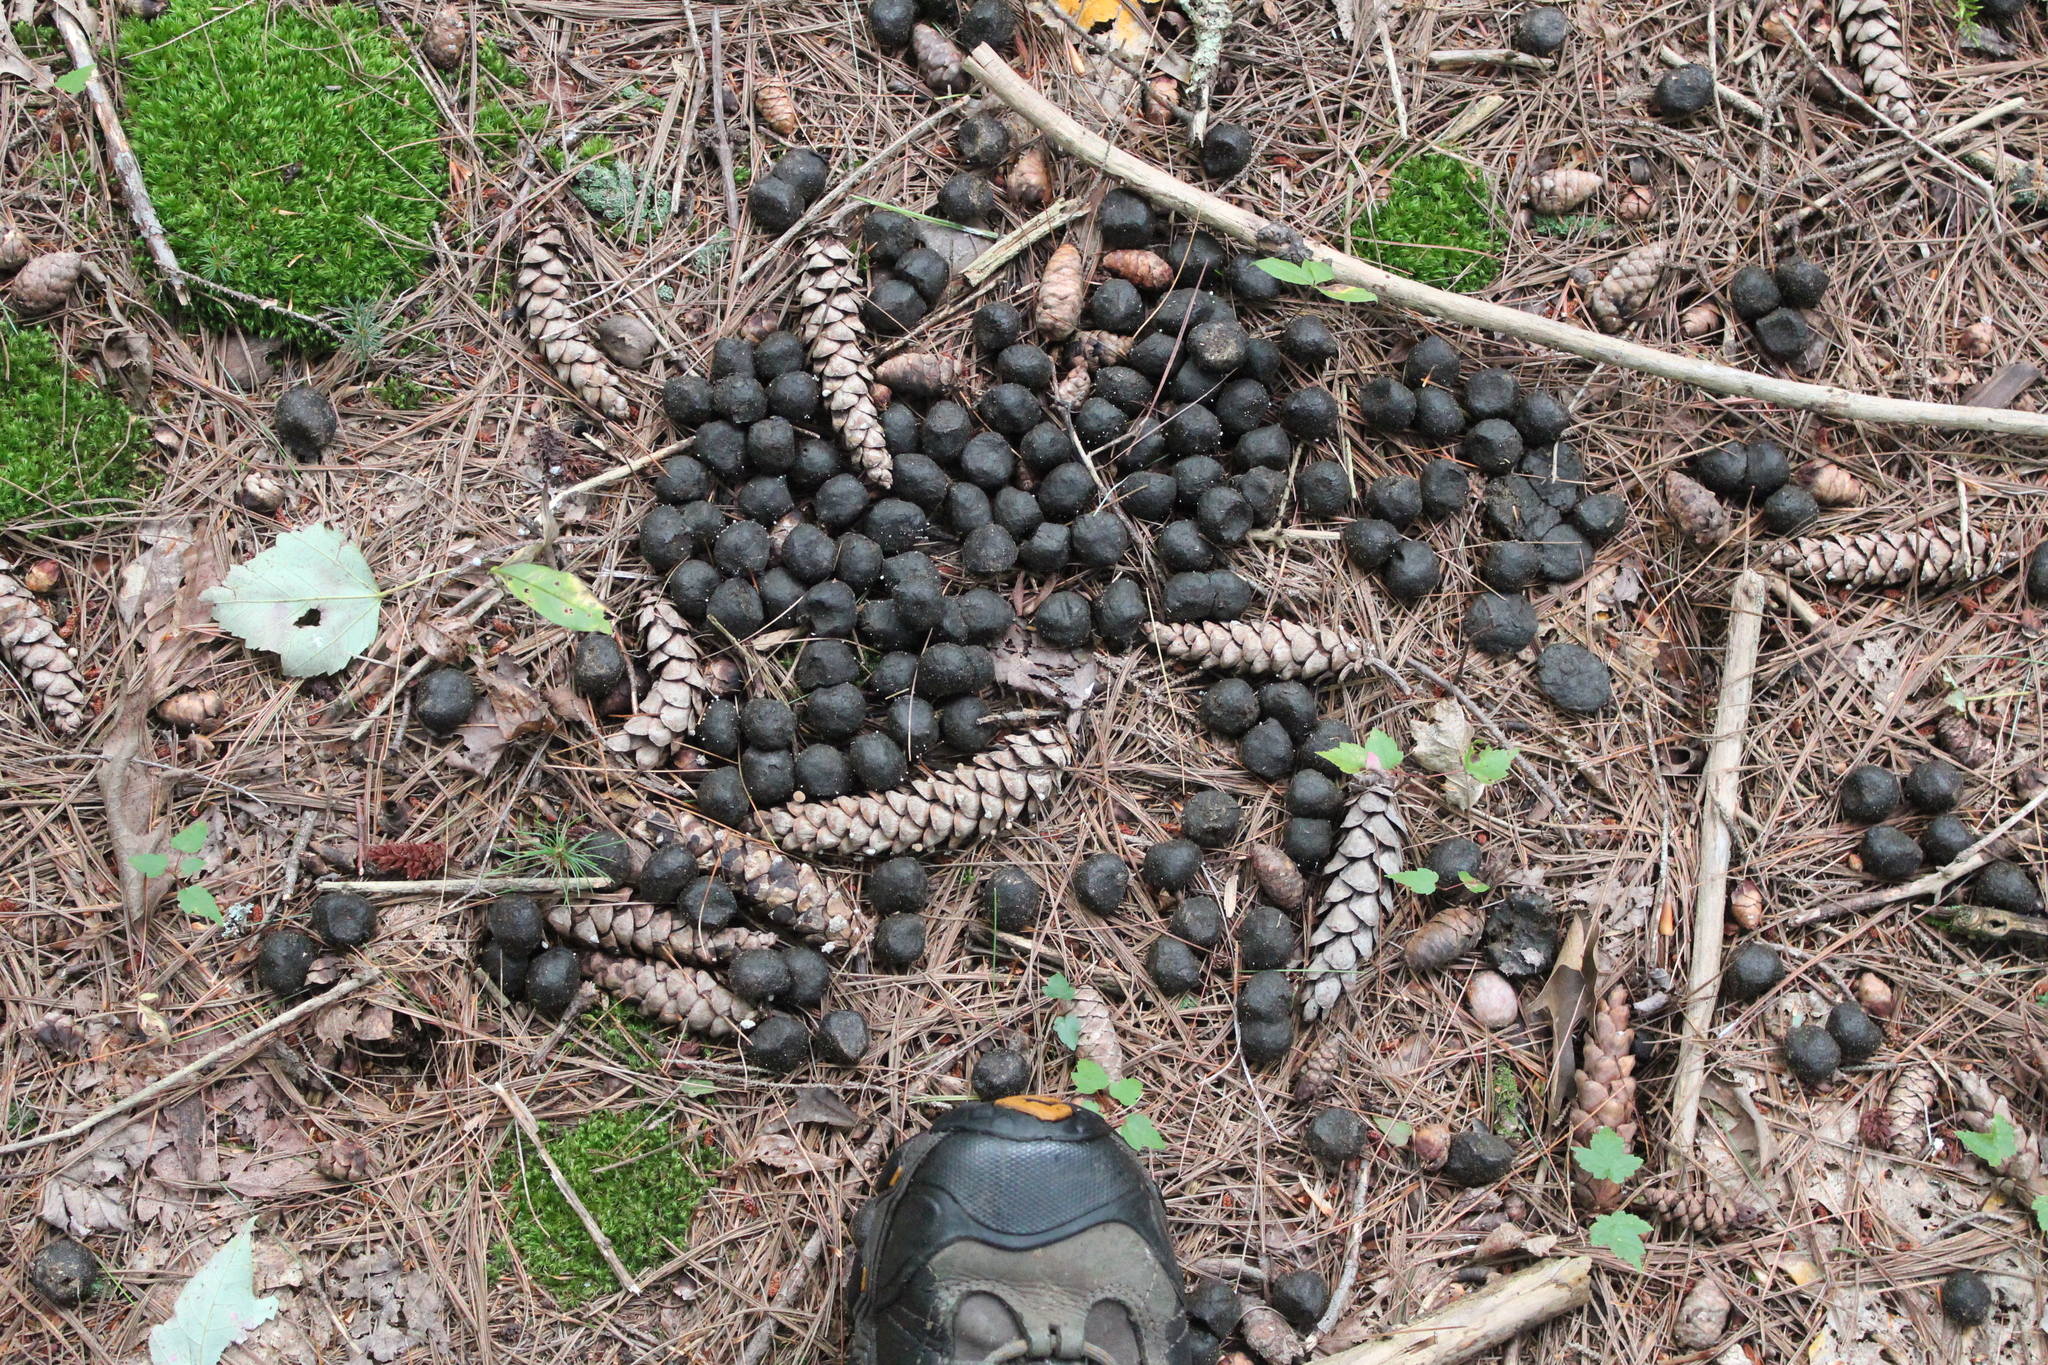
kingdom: Animalia
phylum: Chordata
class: Mammalia
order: Artiodactyla
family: Cervidae
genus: Alces
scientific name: Alces alces
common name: Moose
